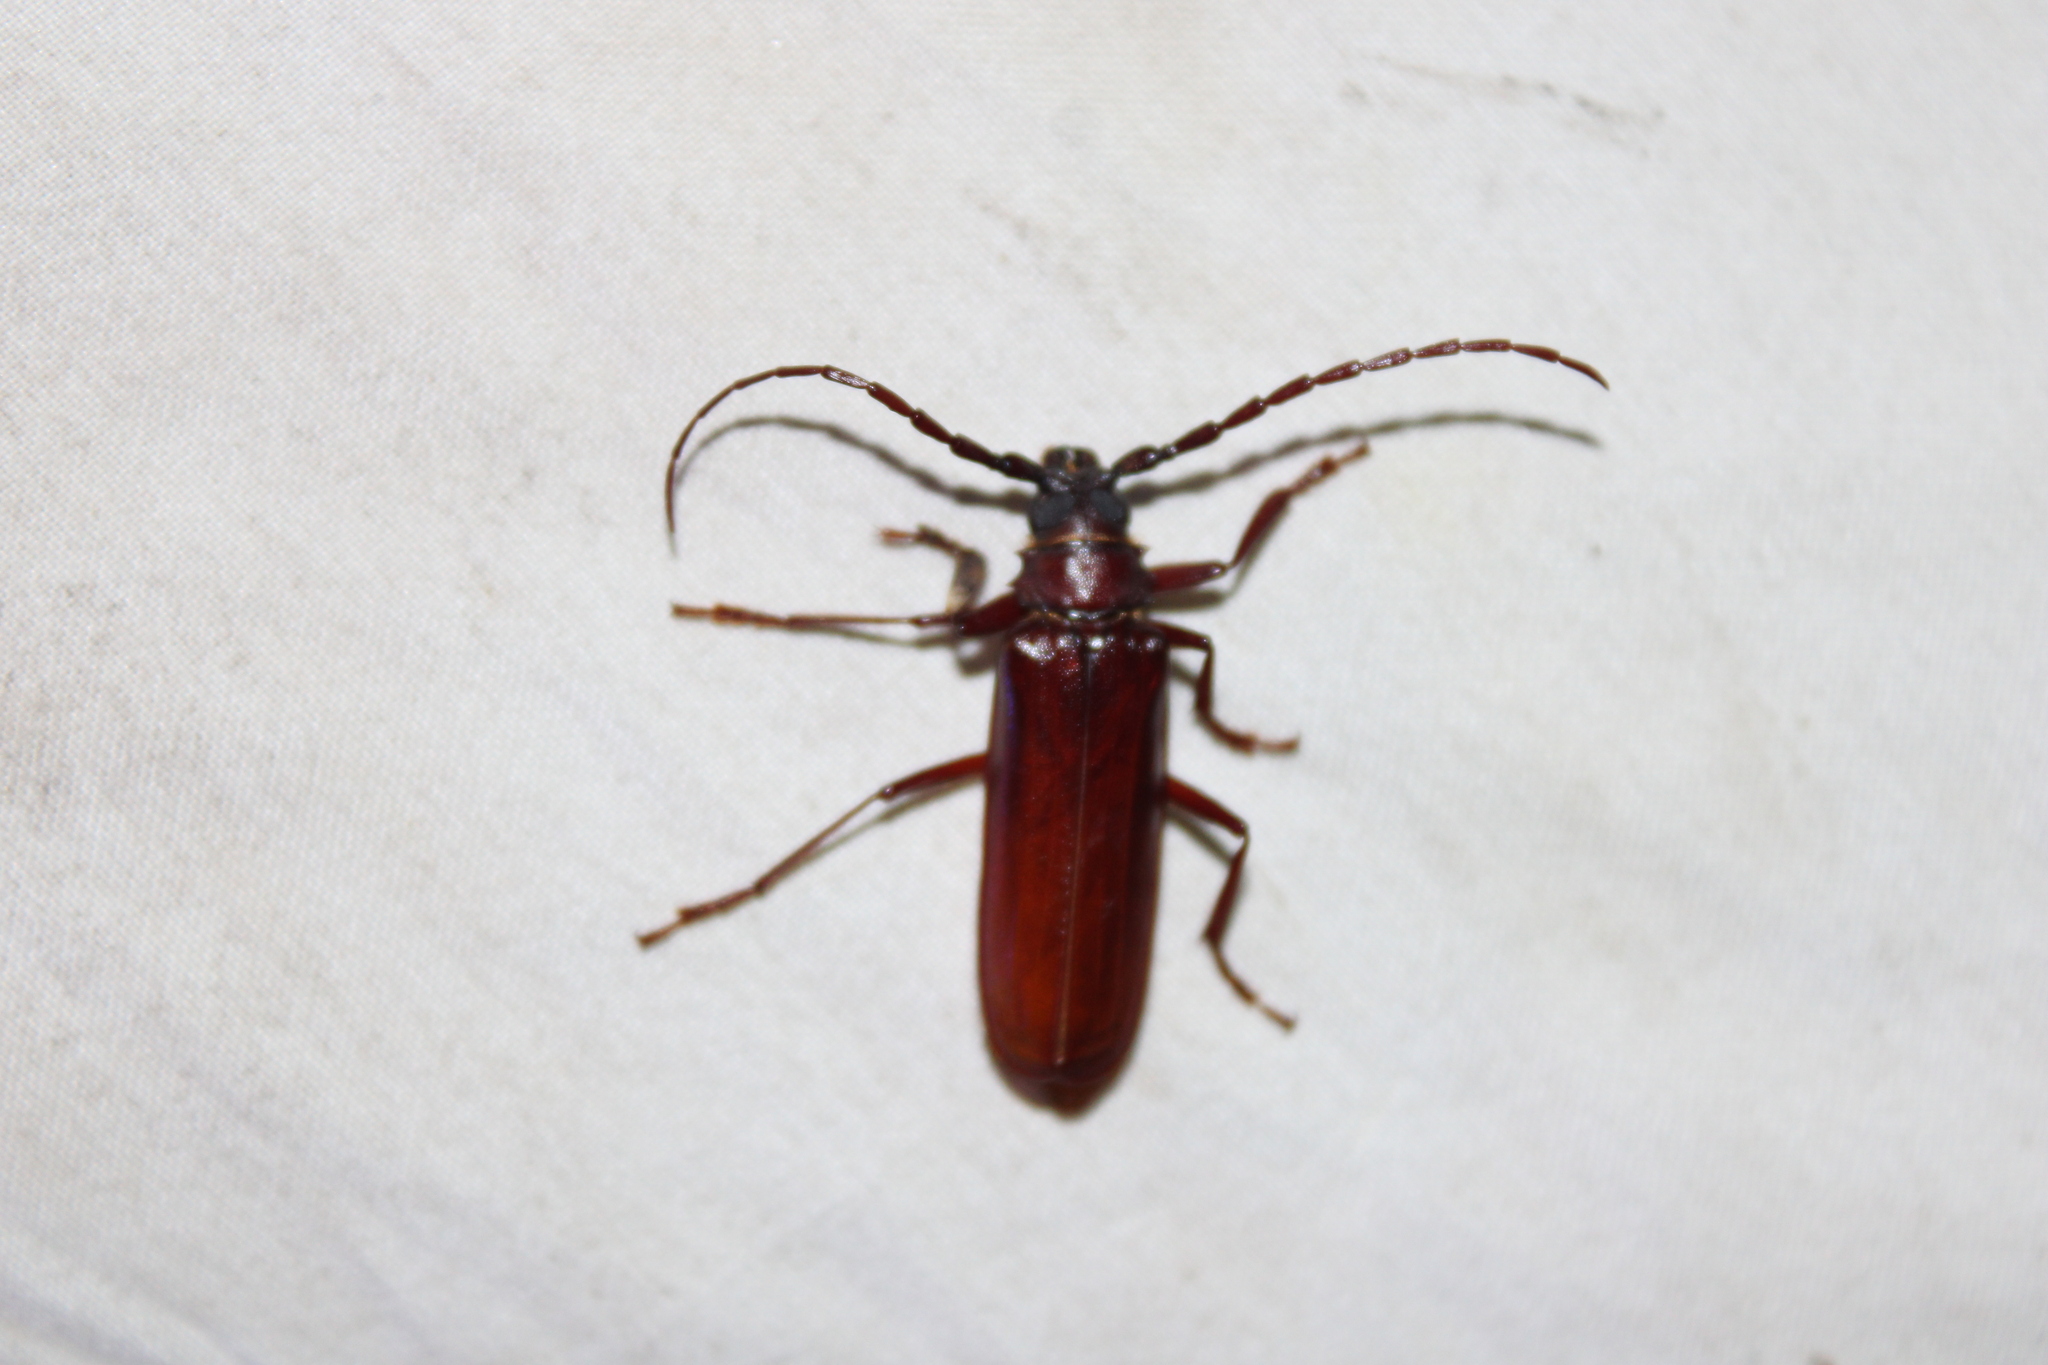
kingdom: Animalia
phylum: Arthropoda
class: Insecta
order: Coleoptera
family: Cerambycidae
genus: Orthosoma
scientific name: Orthosoma brunneum
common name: Brown prionid beetle
